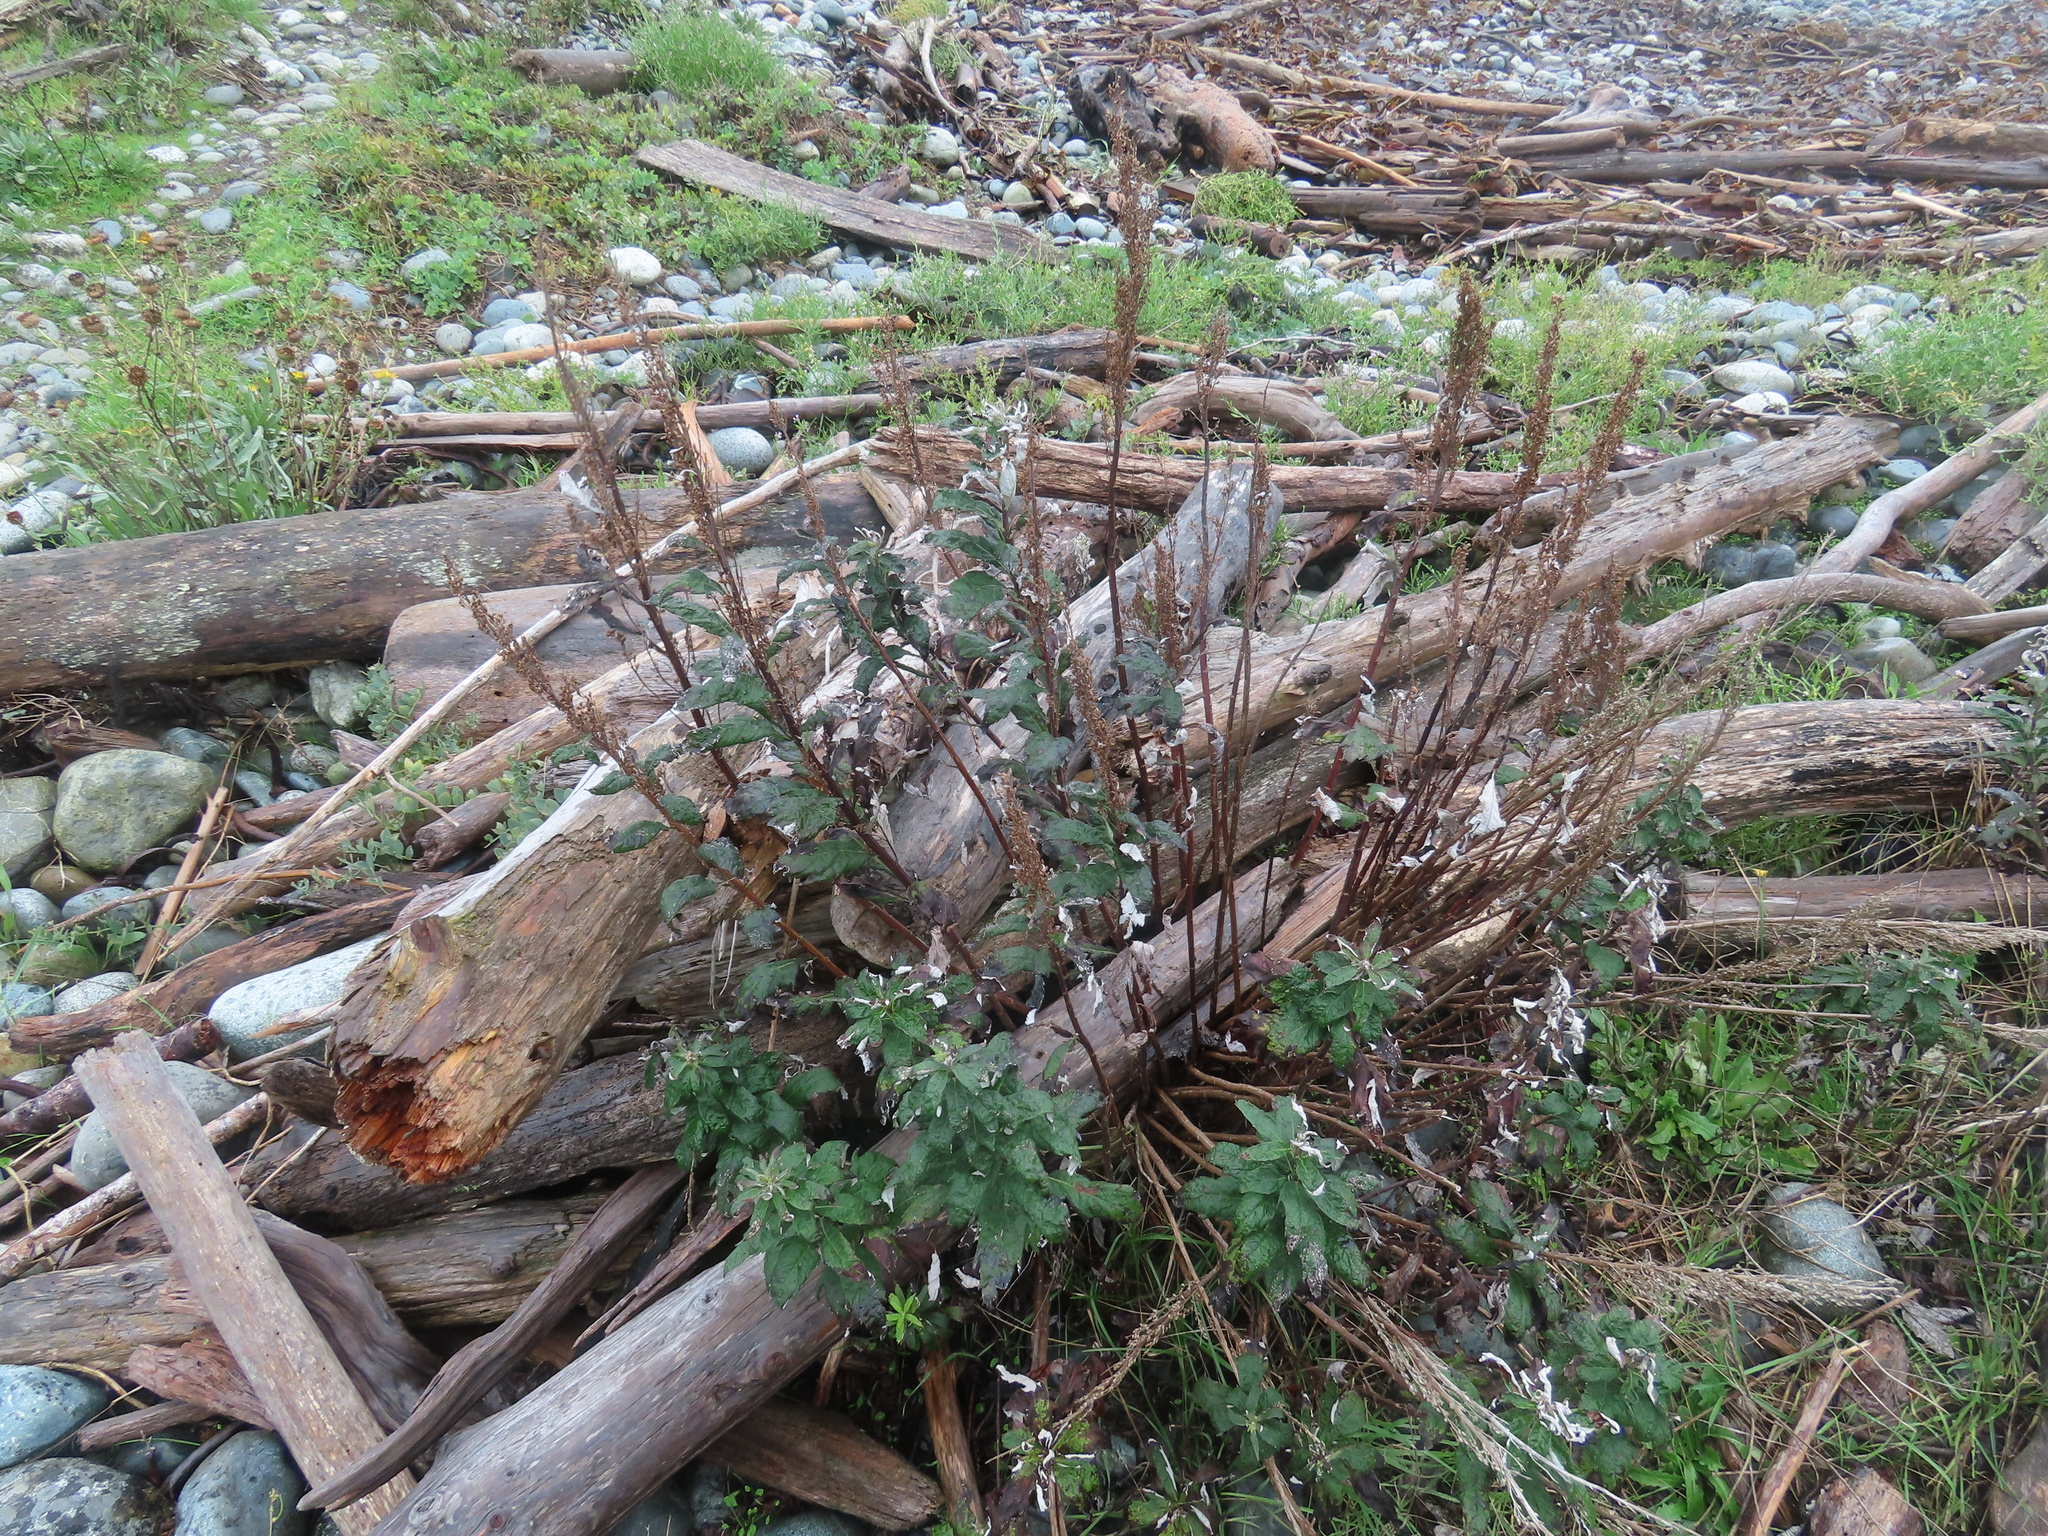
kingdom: Plantae
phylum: Tracheophyta
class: Magnoliopsida
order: Asterales
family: Asteraceae
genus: Artemisia
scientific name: Artemisia suksdorfii
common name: Suksdorf sagewort
